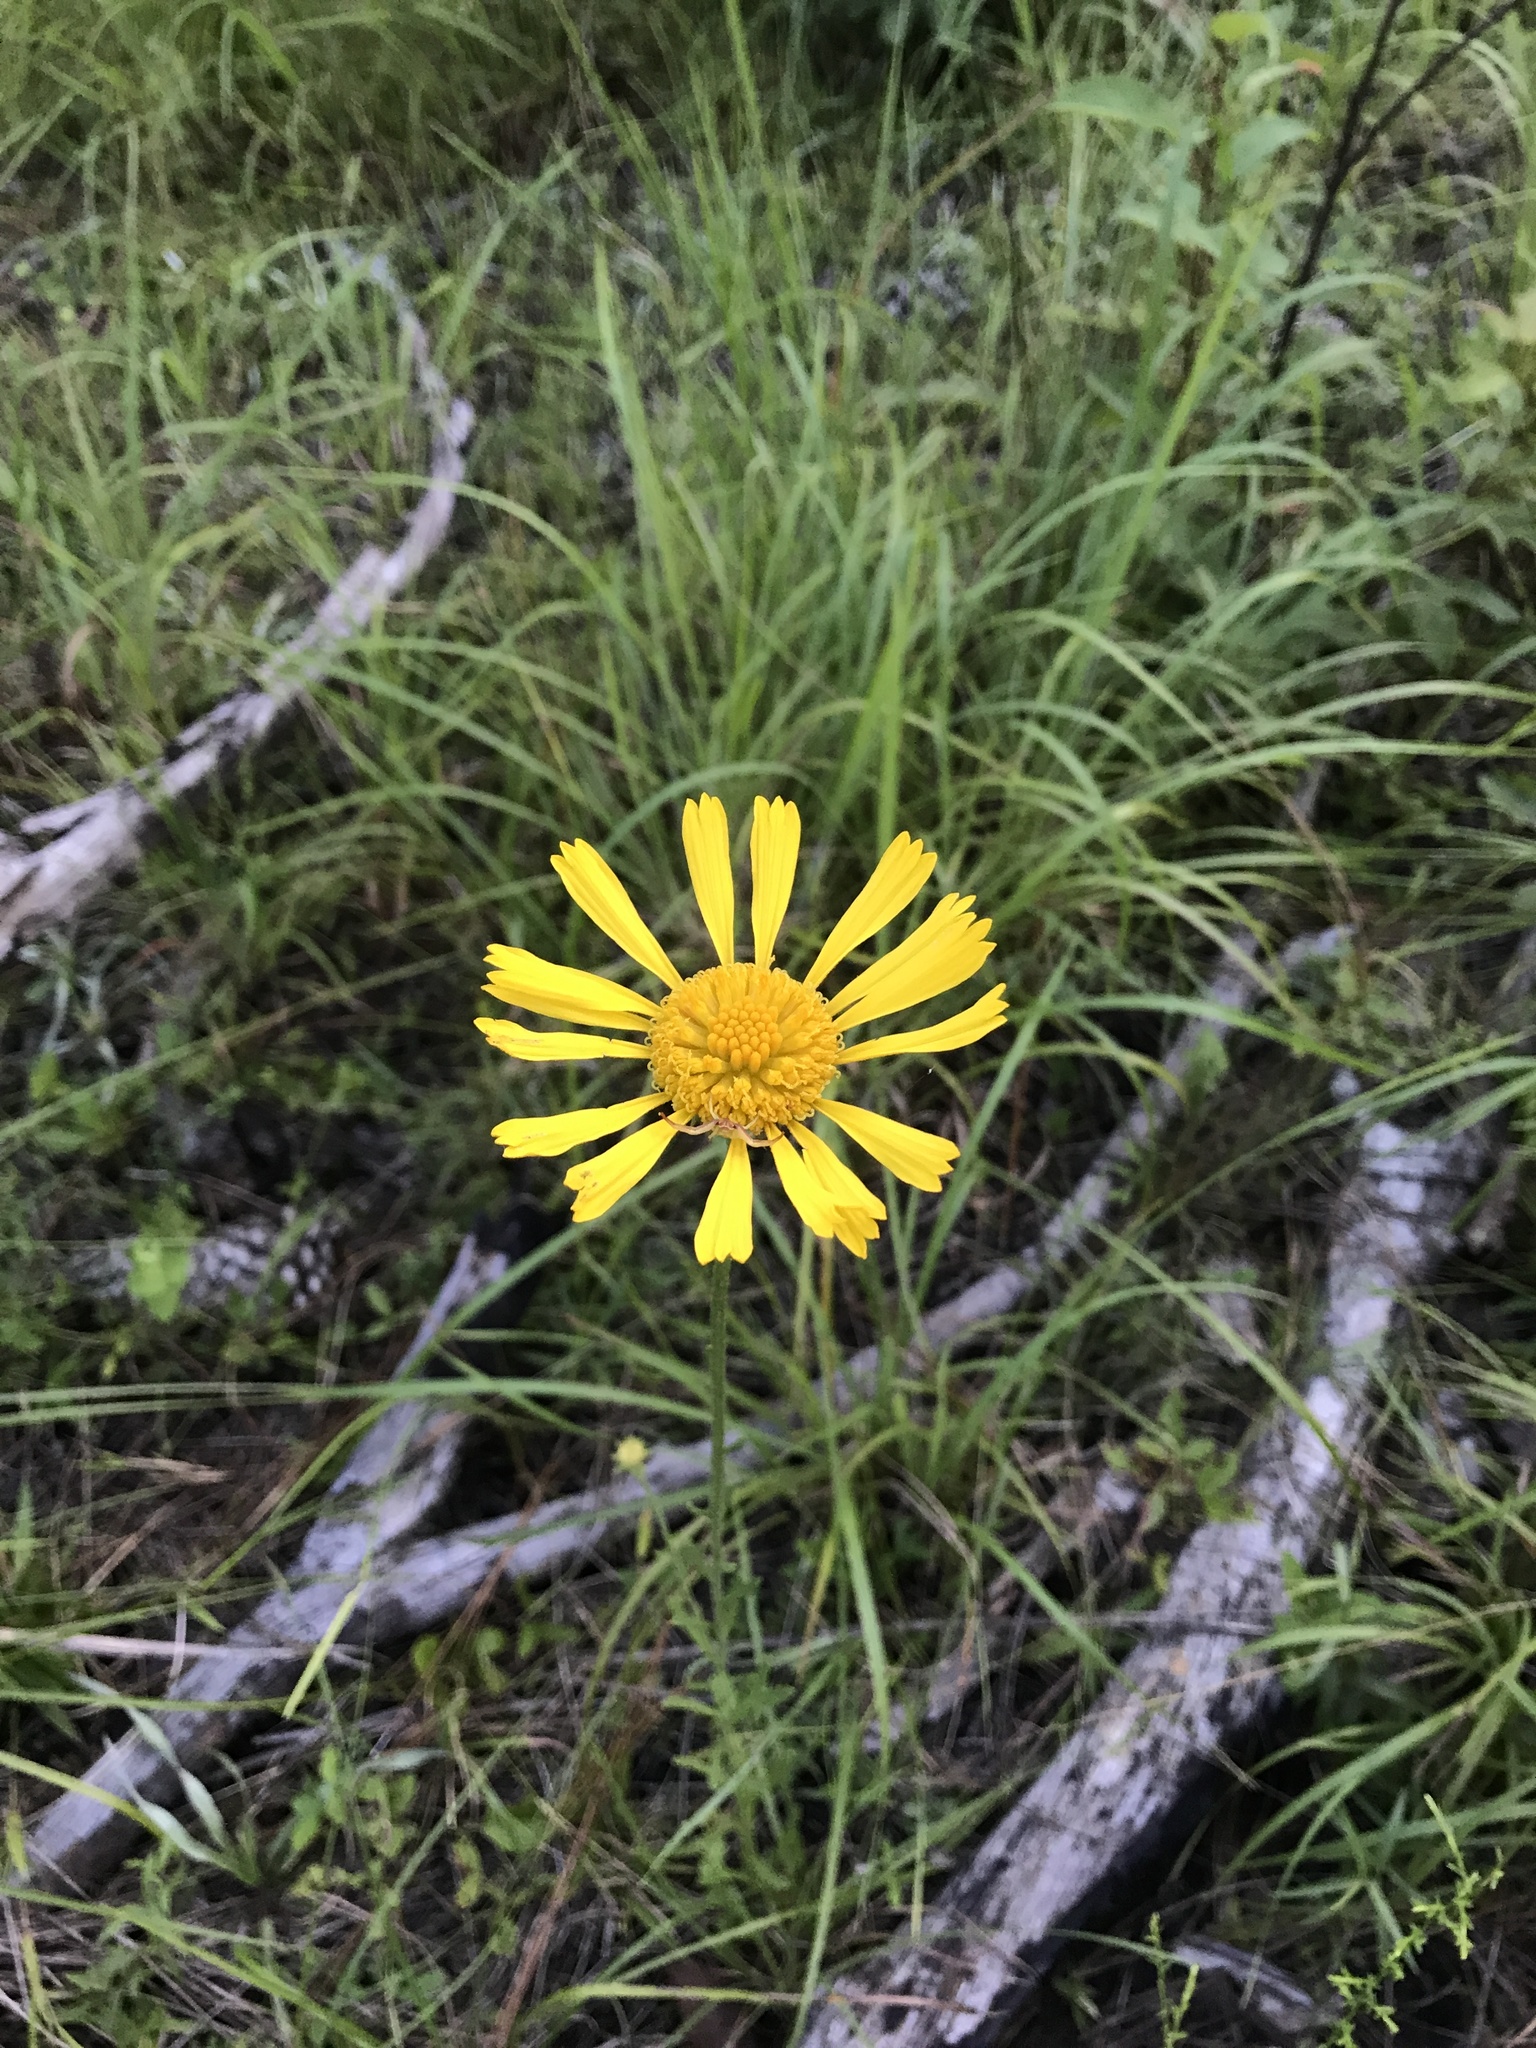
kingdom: Plantae
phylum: Tracheophyta
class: Magnoliopsida
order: Asterales
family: Asteraceae
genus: Balduina
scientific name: Balduina uniflora
